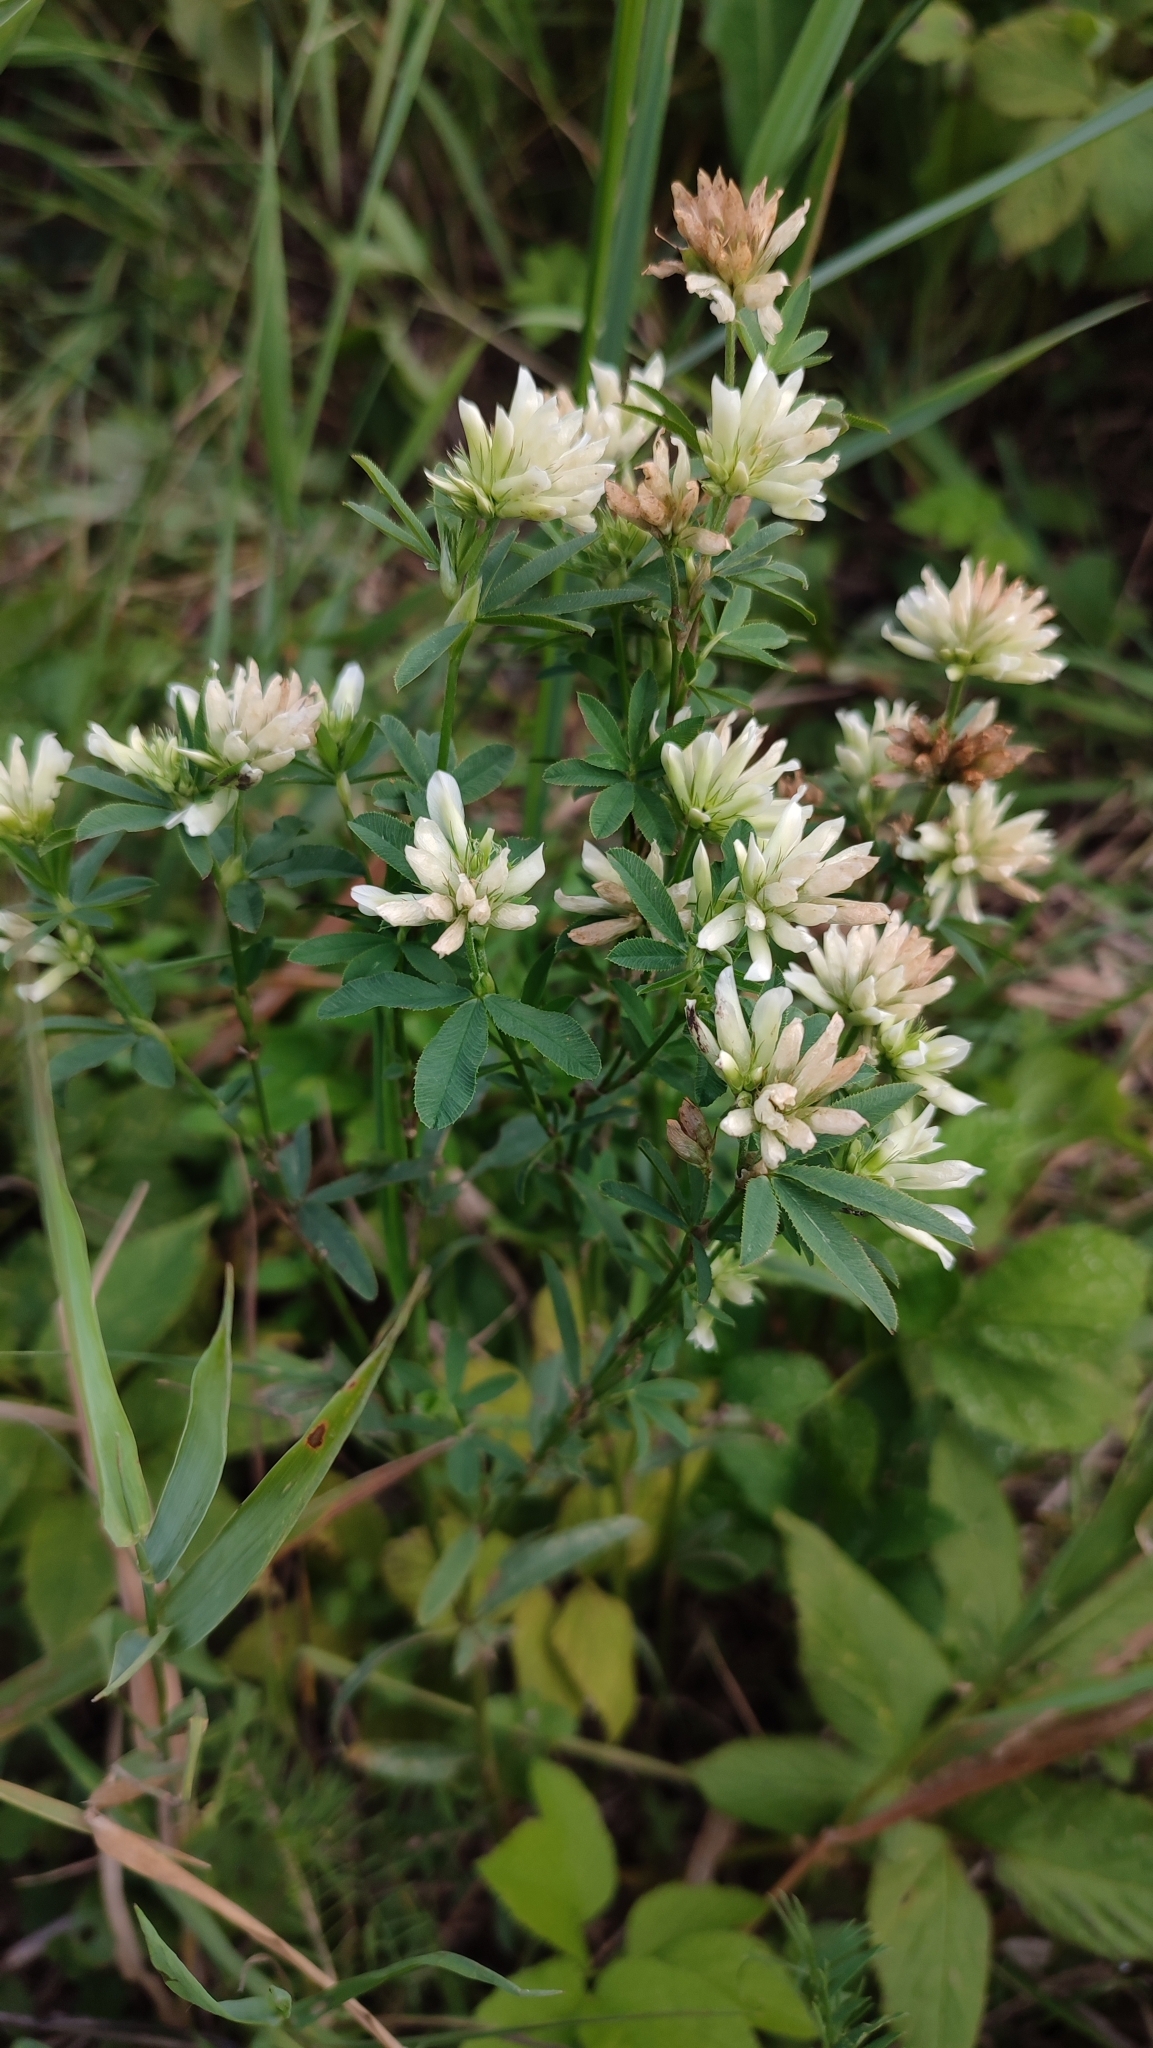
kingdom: Plantae
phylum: Tracheophyta
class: Magnoliopsida
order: Fabales
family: Fabaceae
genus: Trifolium
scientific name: Trifolium lupinaster
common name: Lupine clover
